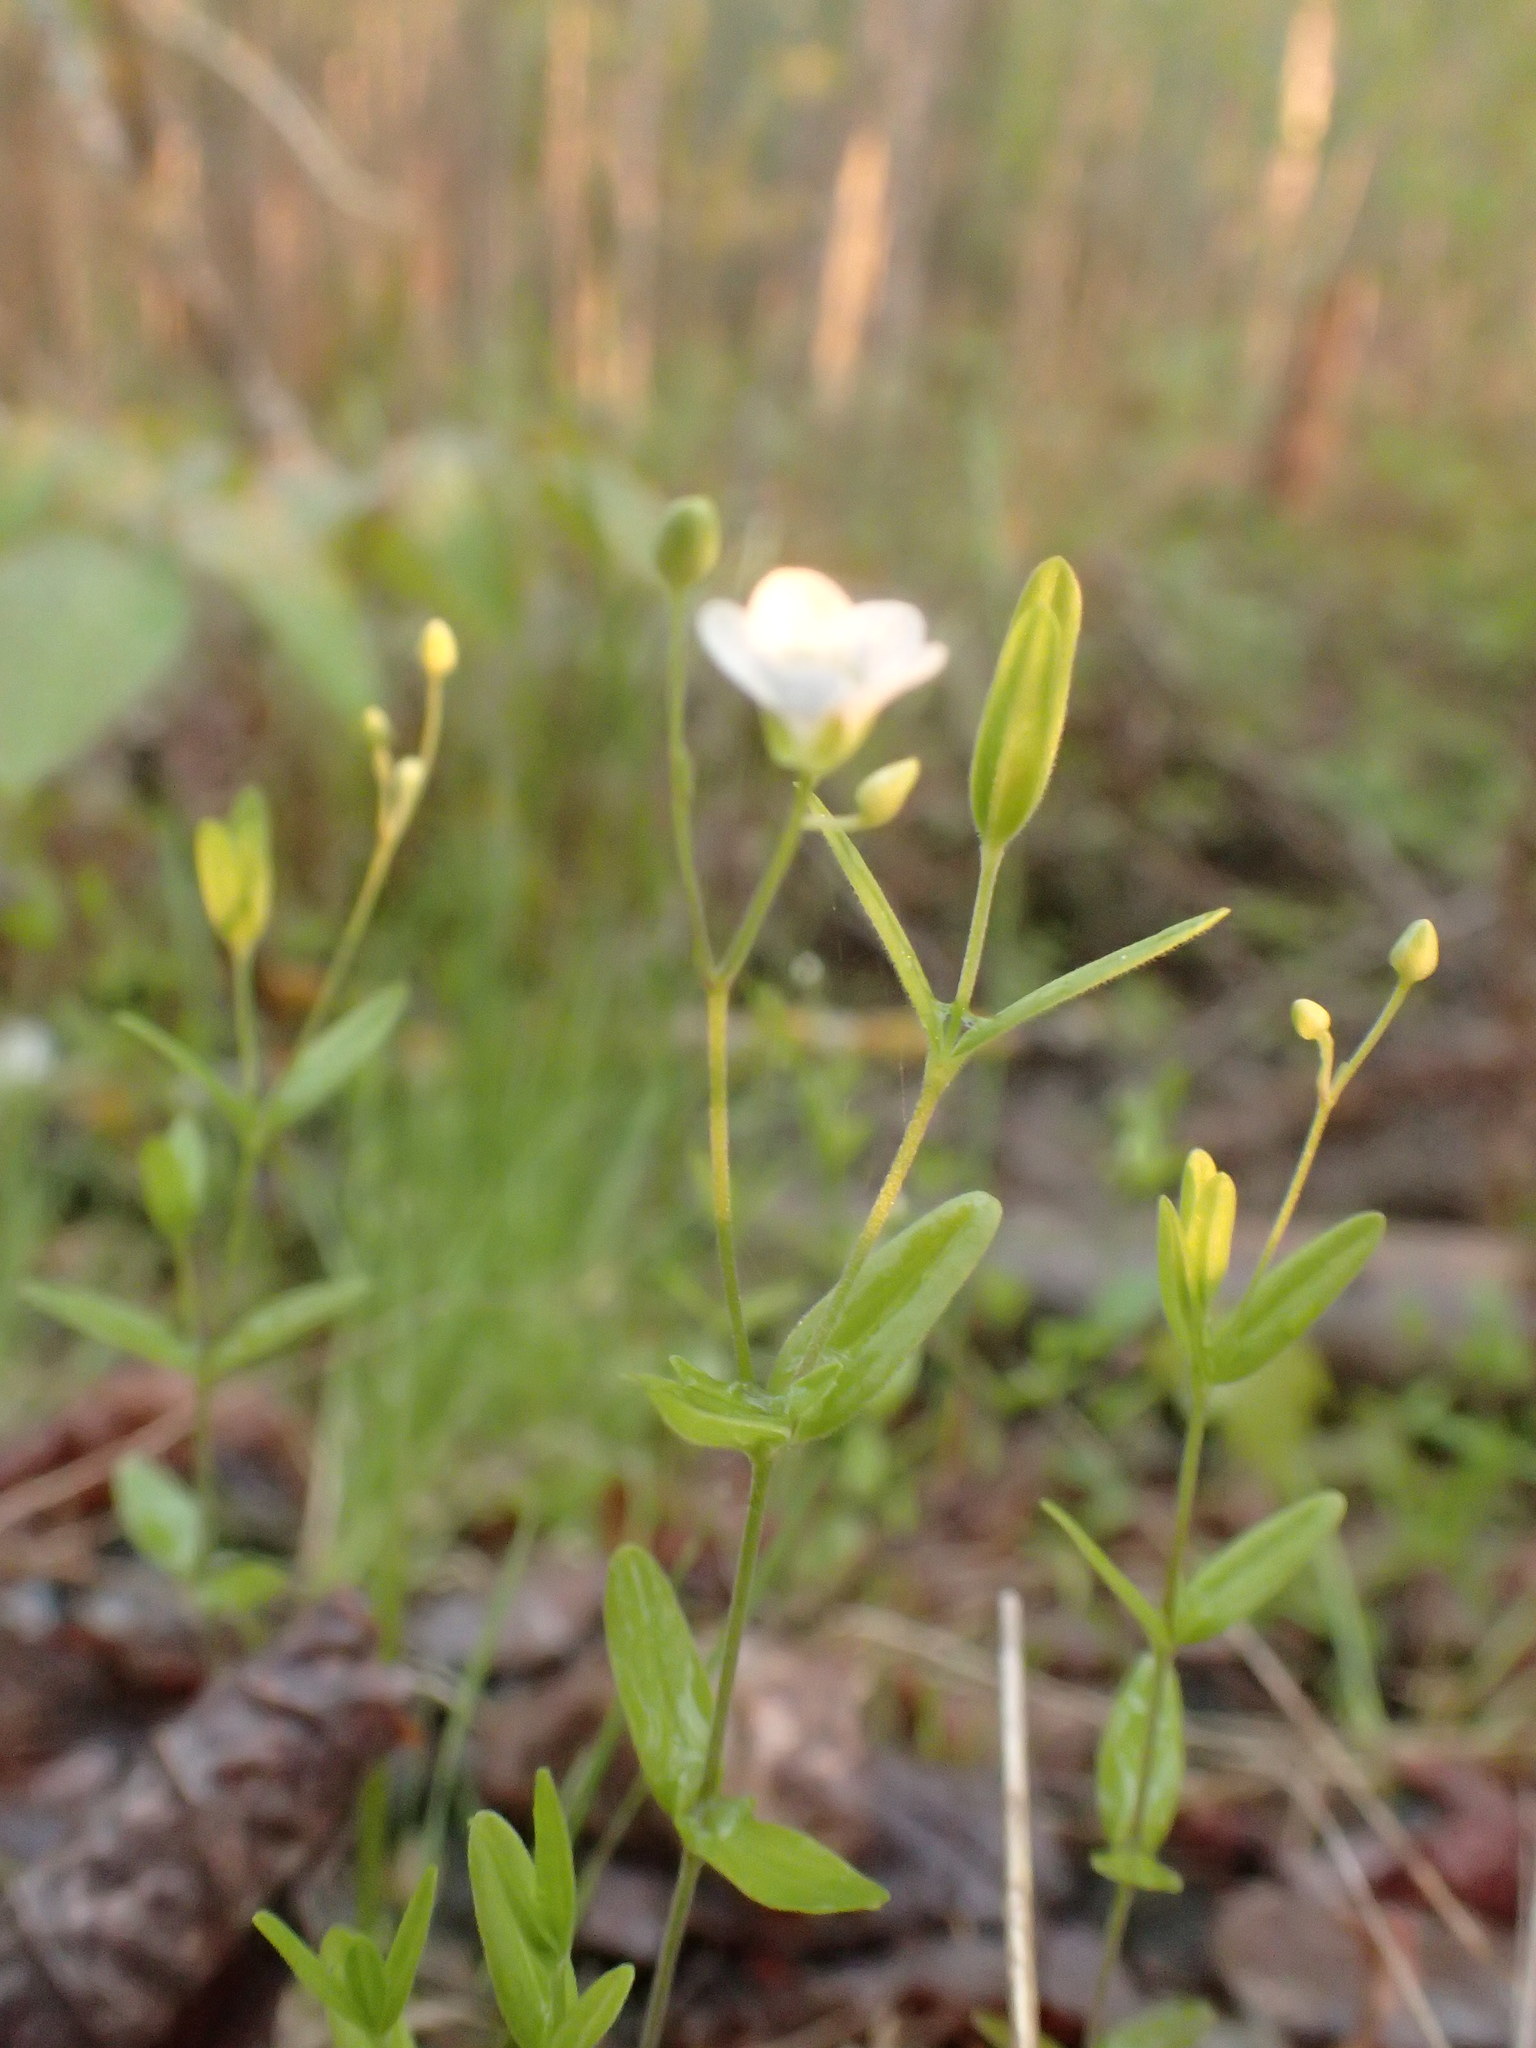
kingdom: Plantae
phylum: Tracheophyta
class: Magnoliopsida
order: Caryophyllales
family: Caryophyllaceae
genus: Moehringia
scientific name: Moehringia lateriflora
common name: Blunt-leaved sandwort
